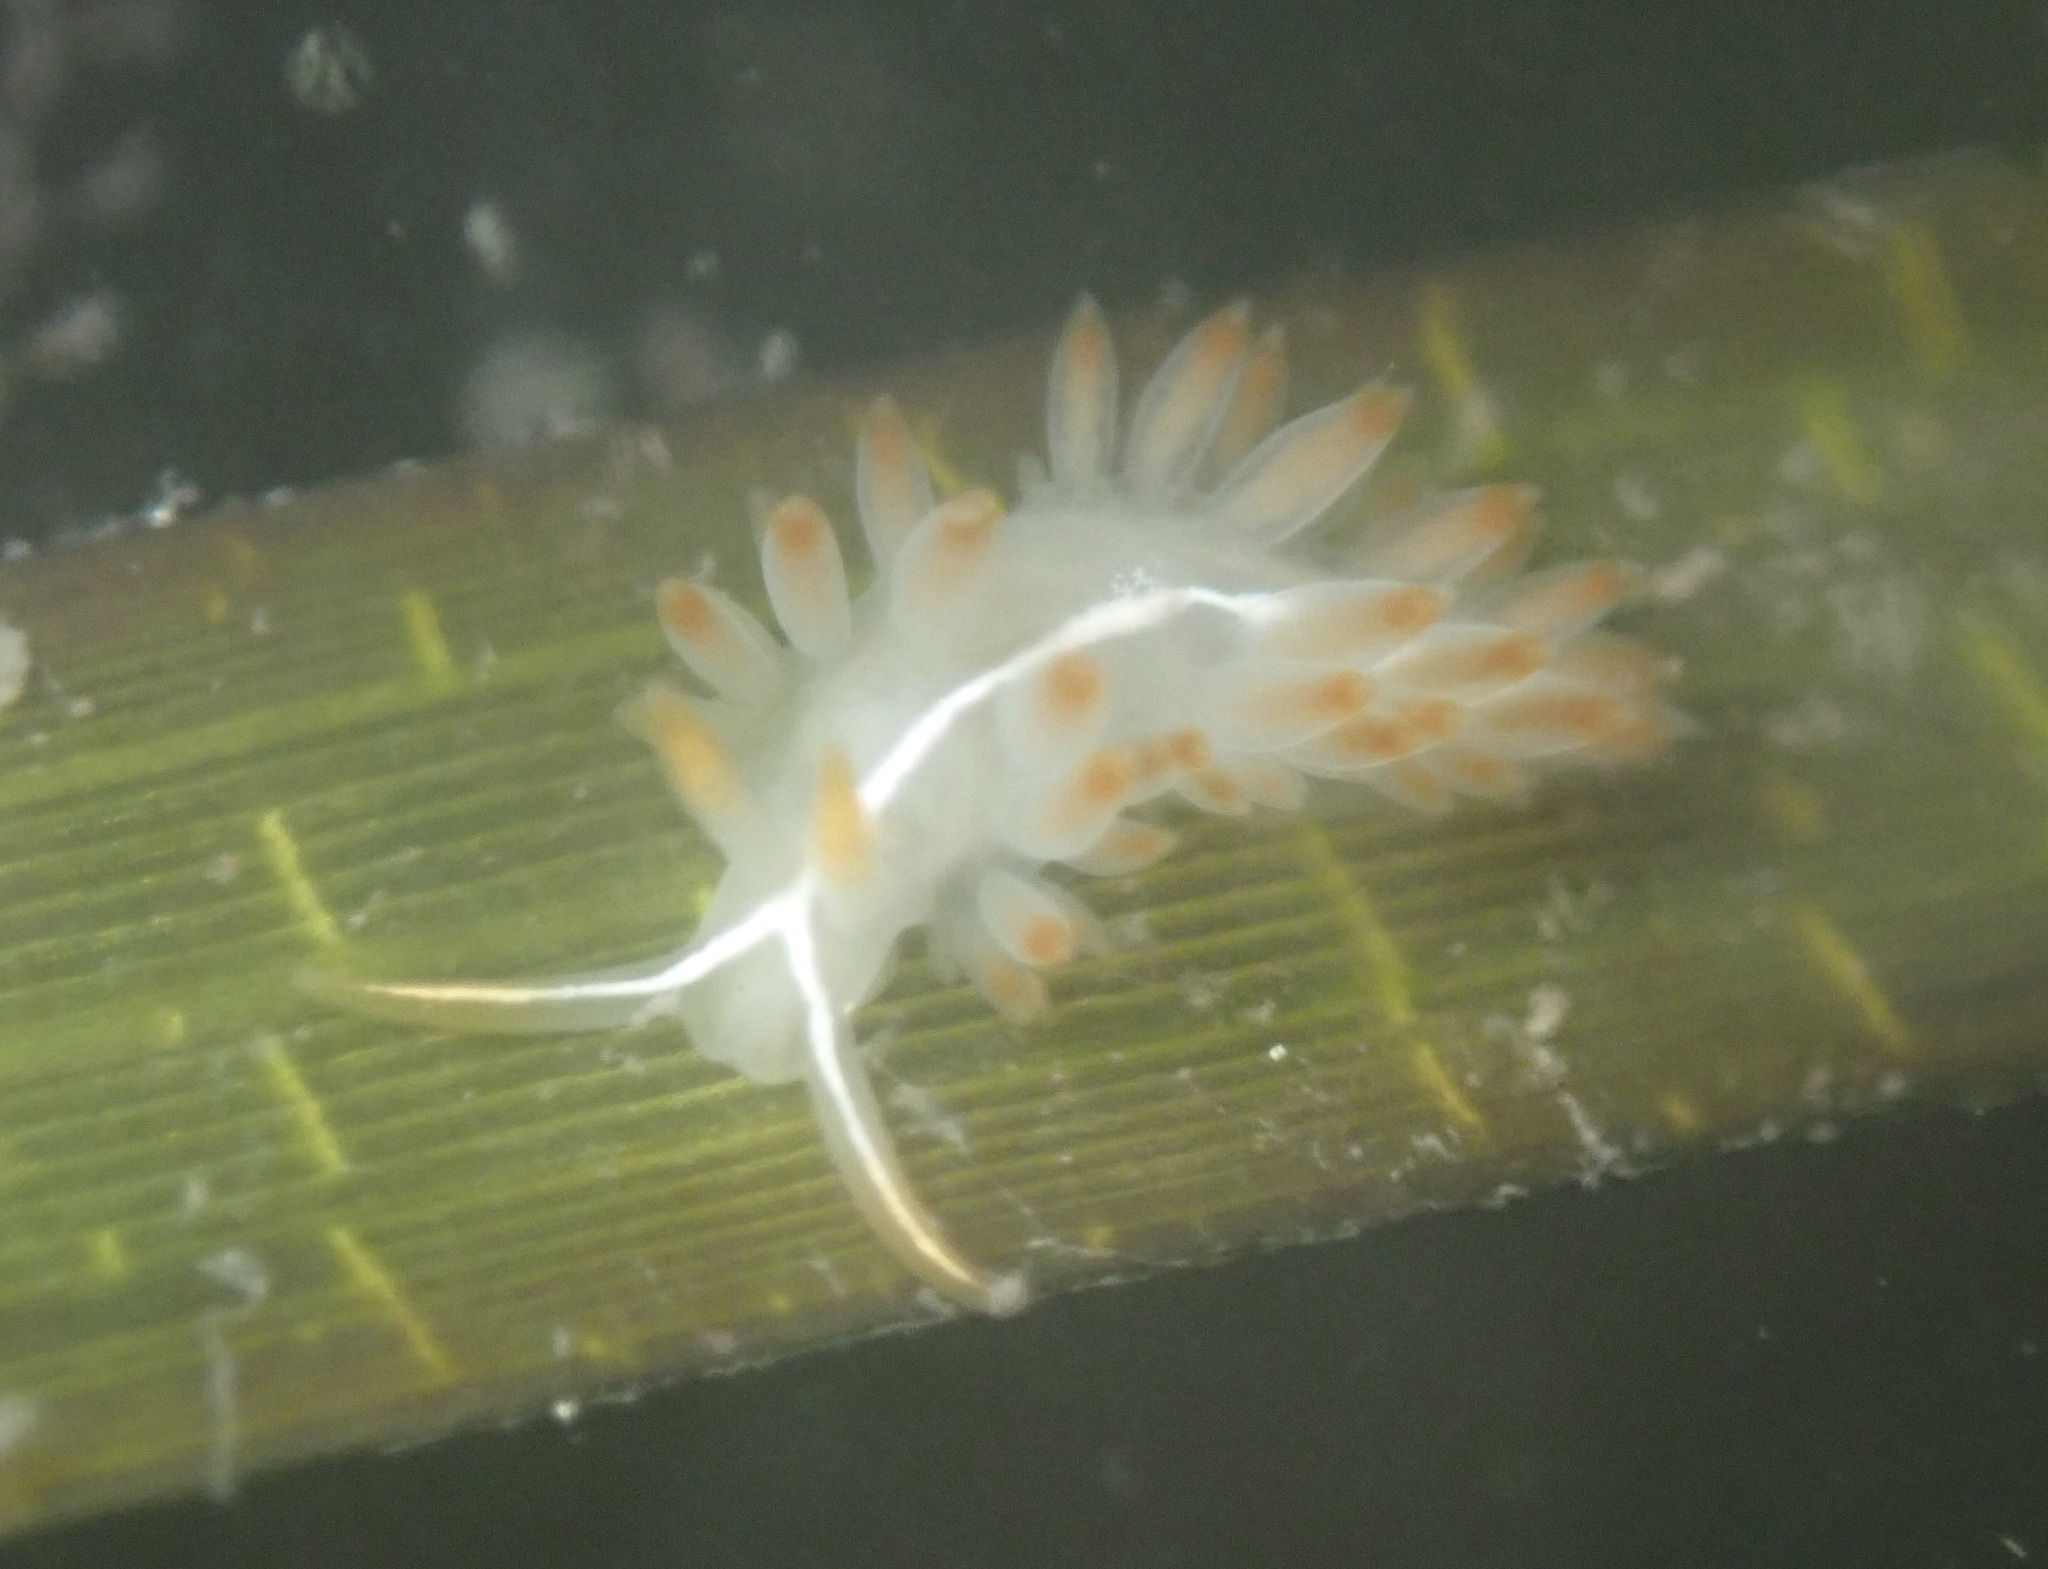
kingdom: Animalia
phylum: Mollusca
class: Gastropoda
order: Nudibranchia
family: Coryphellidae
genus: Coryphella
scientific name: Coryphella trilineata
